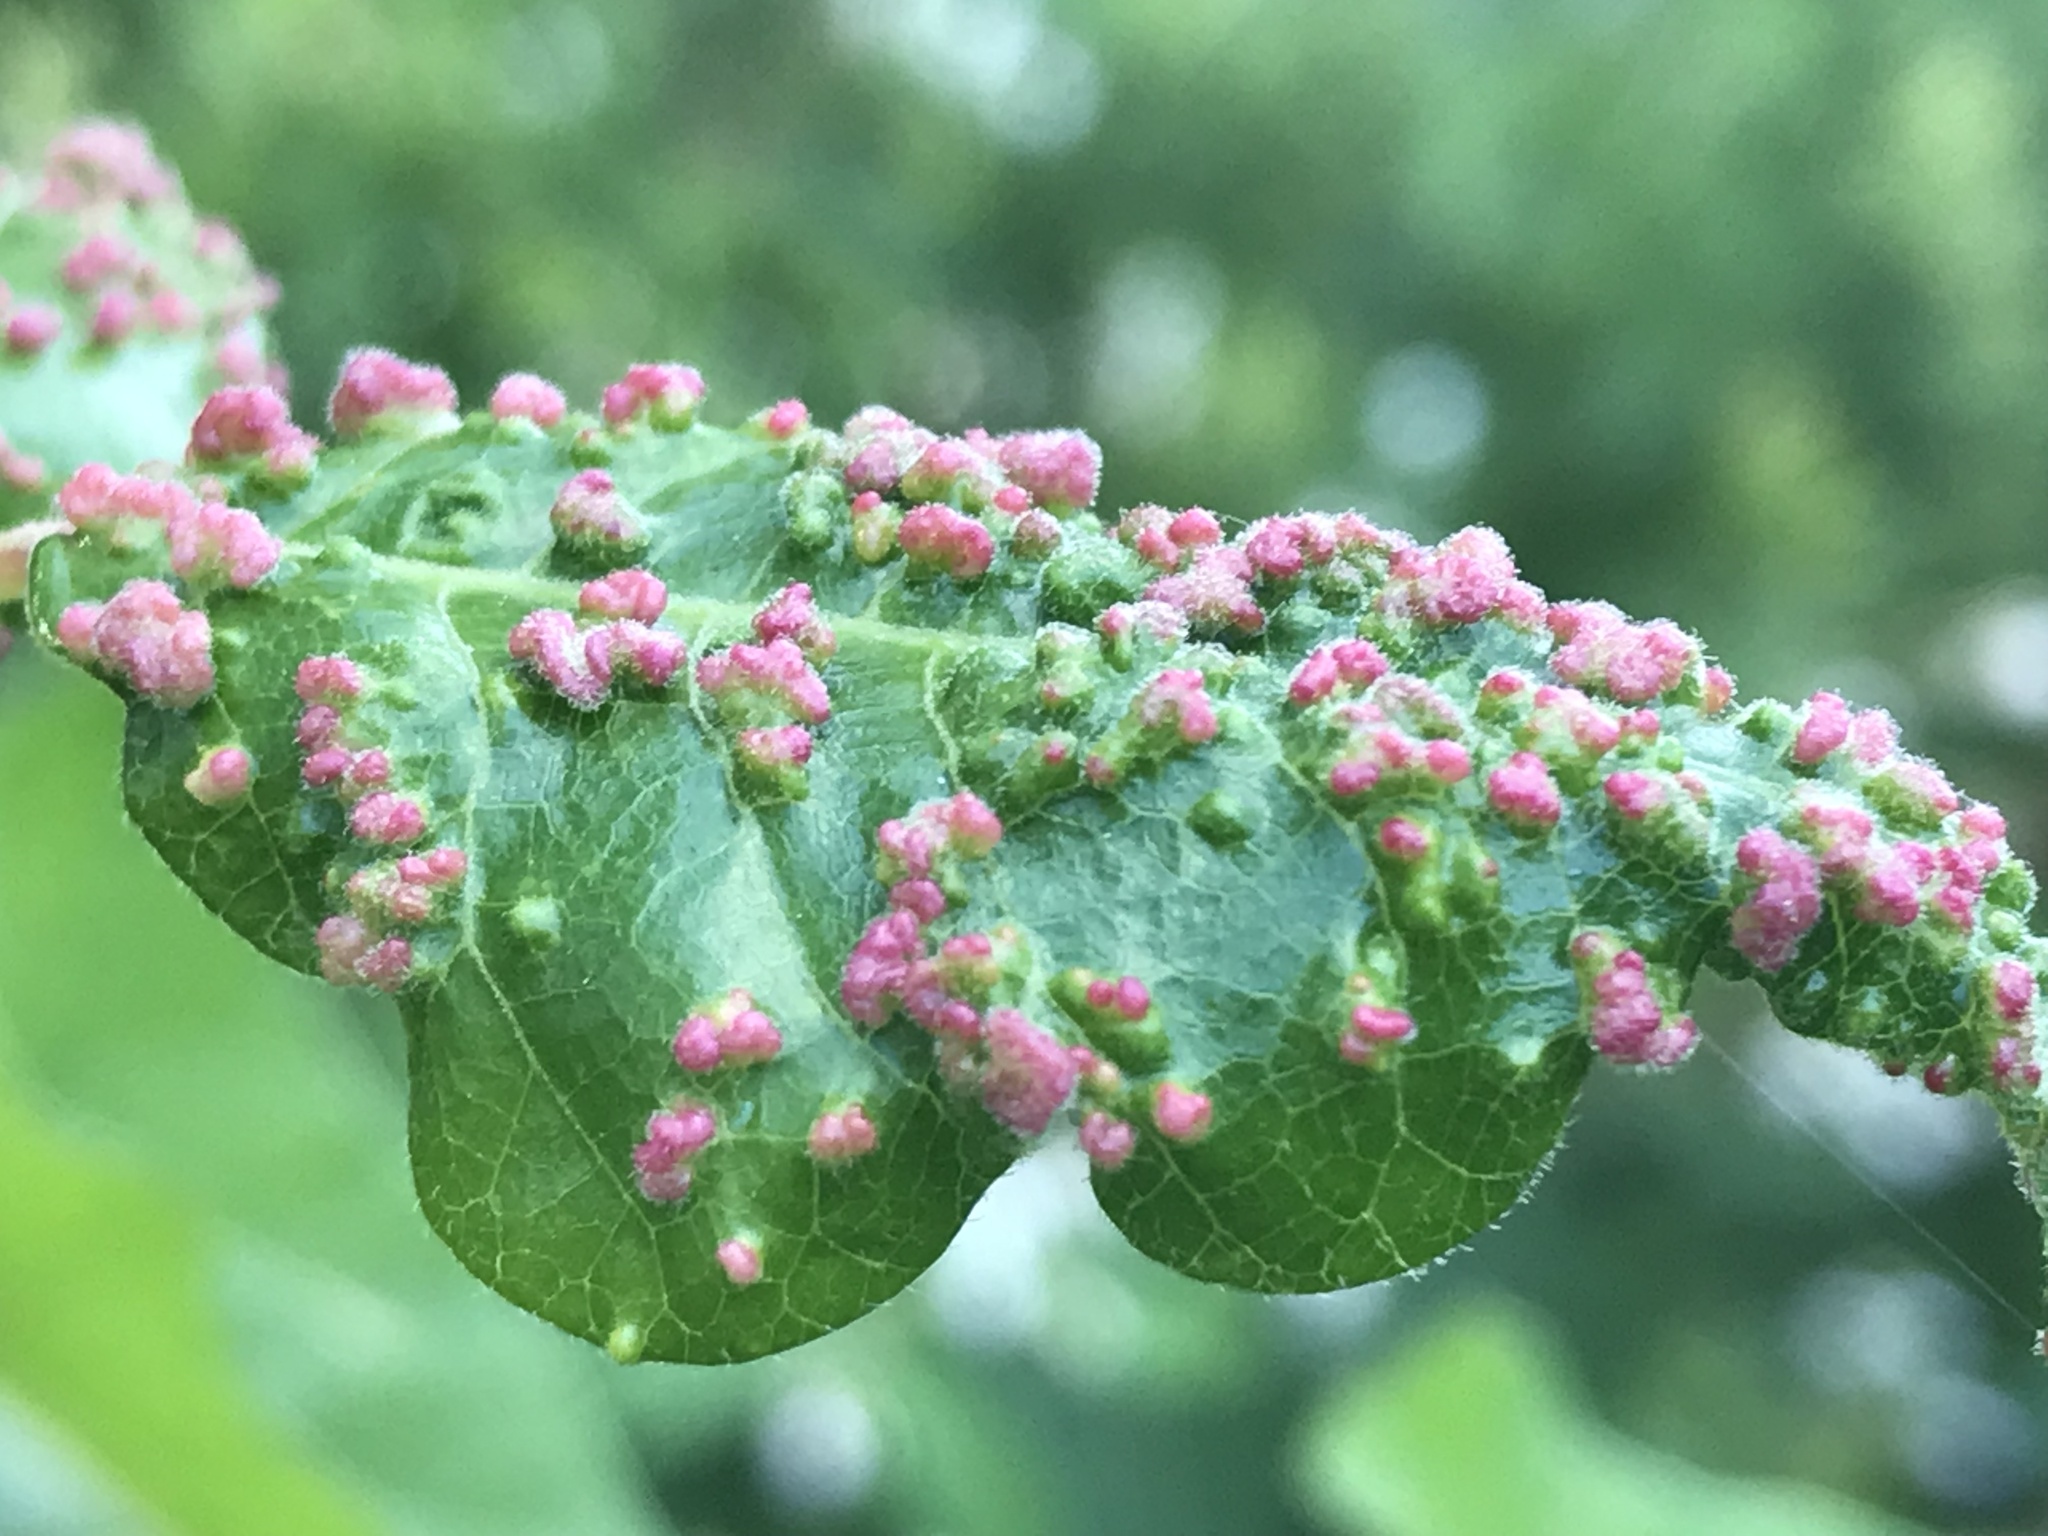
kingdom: Animalia
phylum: Arthropoda
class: Arachnida
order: Trombidiformes
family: Eriophyidae
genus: Aculops
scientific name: Aculops
